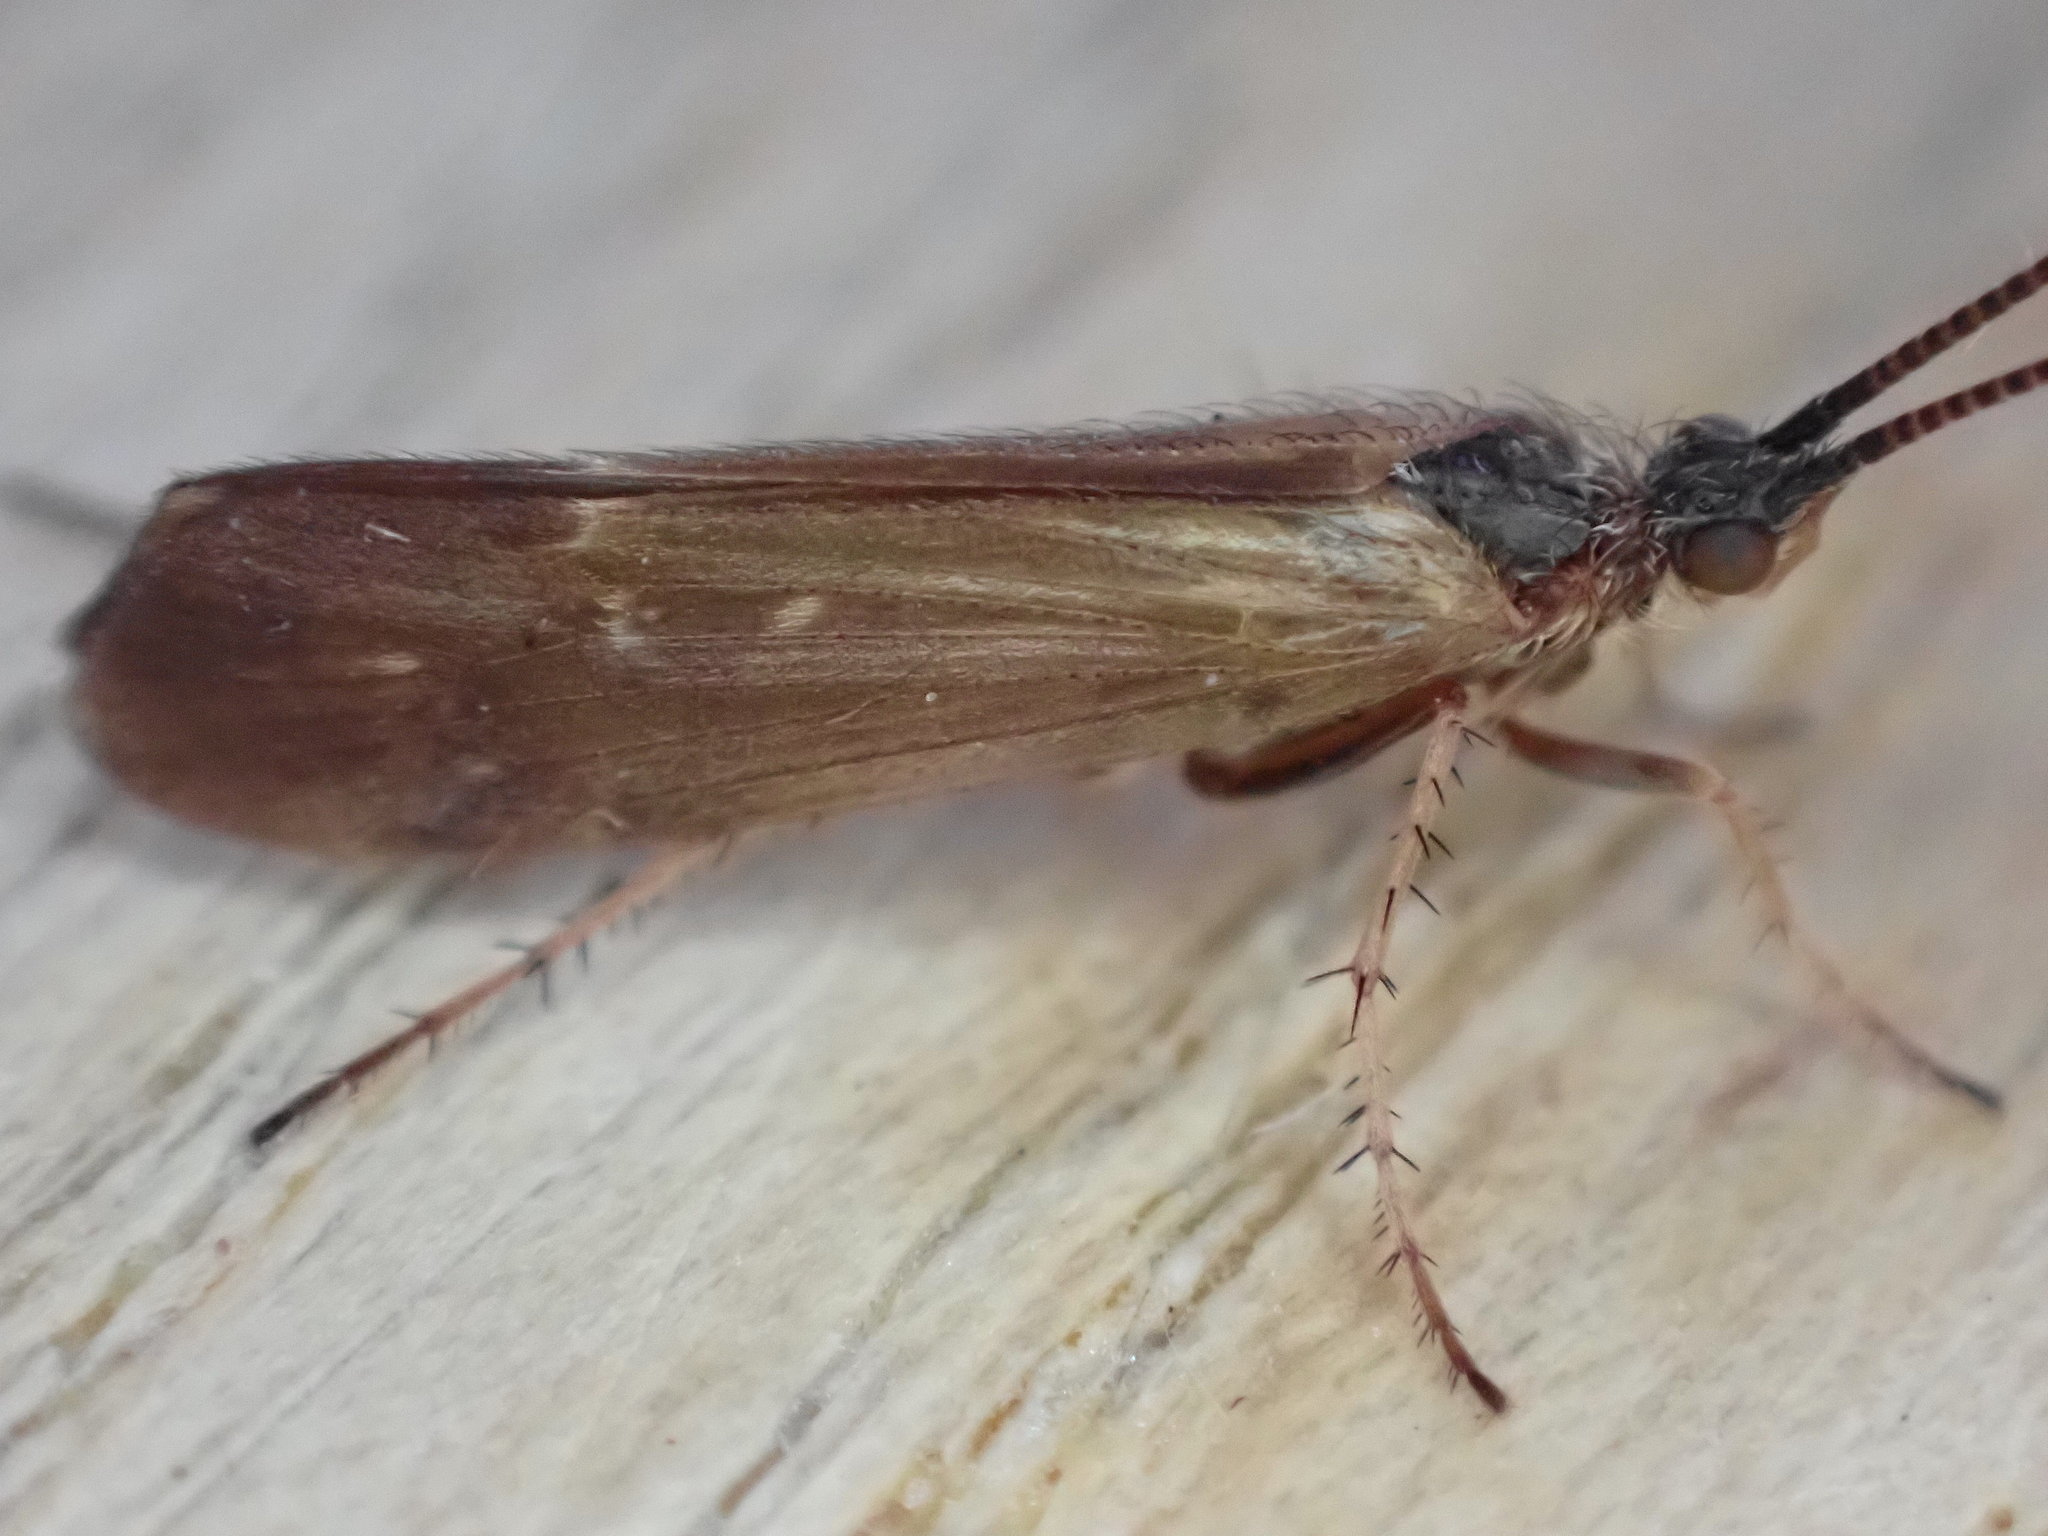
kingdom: Animalia
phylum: Arthropoda
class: Insecta
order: Trichoptera
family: Limnephilidae
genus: Limnephilus
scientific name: Limnephilus auricula
